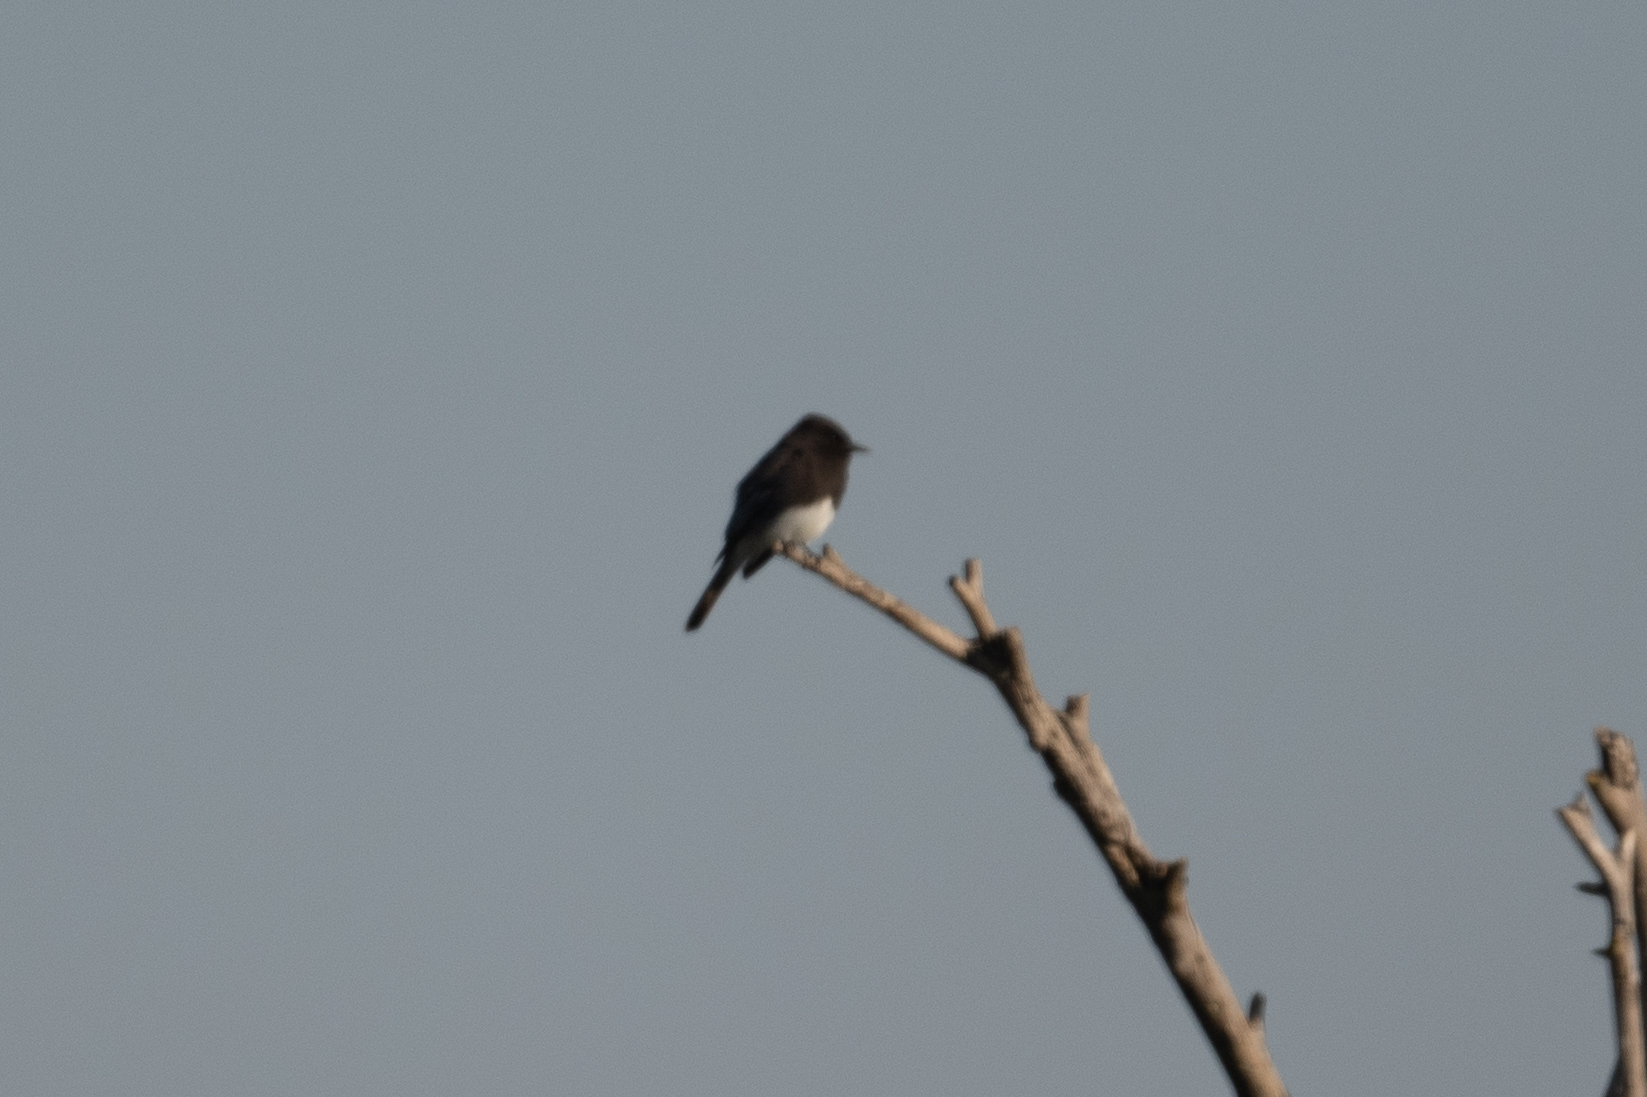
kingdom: Animalia
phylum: Chordata
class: Aves
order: Passeriformes
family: Tyrannidae
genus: Sayornis
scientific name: Sayornis nigricans
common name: Black phoebe
